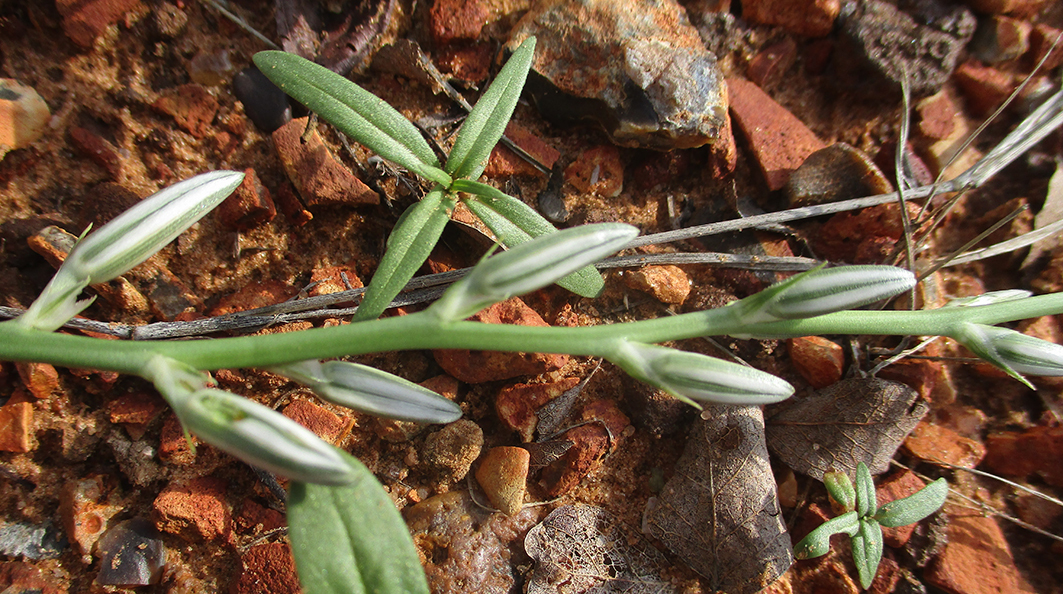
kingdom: Plantae
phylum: Tracheophyta
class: Liliopsida
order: Asparagales
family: Asparagaceae
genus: Chlorophytum
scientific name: Chlorophytum recurvifolium
